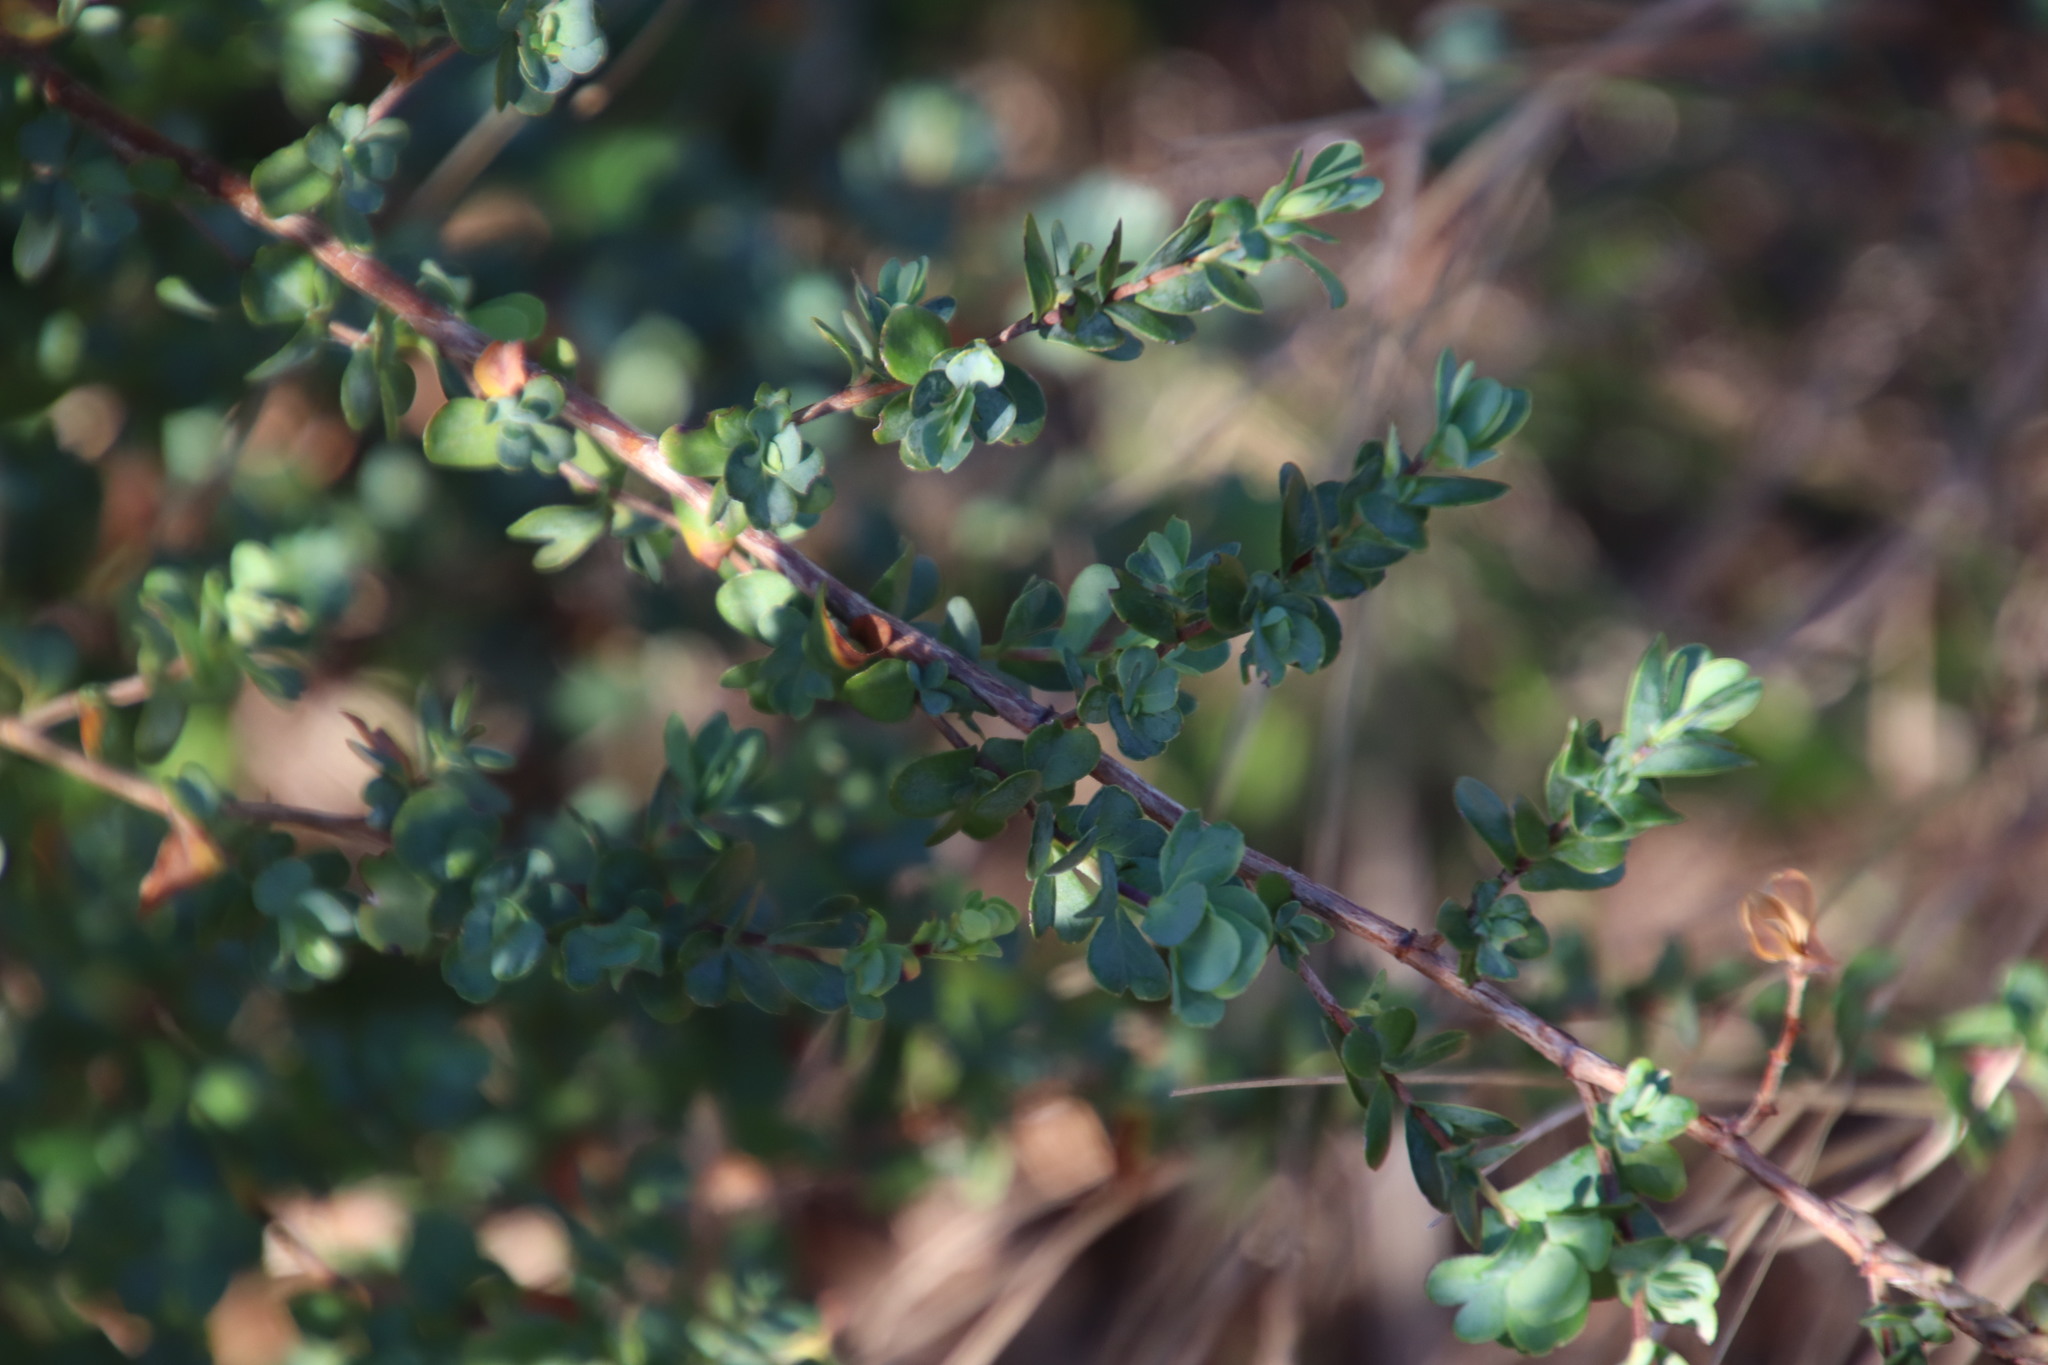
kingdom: Plantae
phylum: Tracheophyta
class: Magnoliopsida
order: Rosales
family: Rosaceae
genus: Cliffortia
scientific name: Cliffortia obcordata
